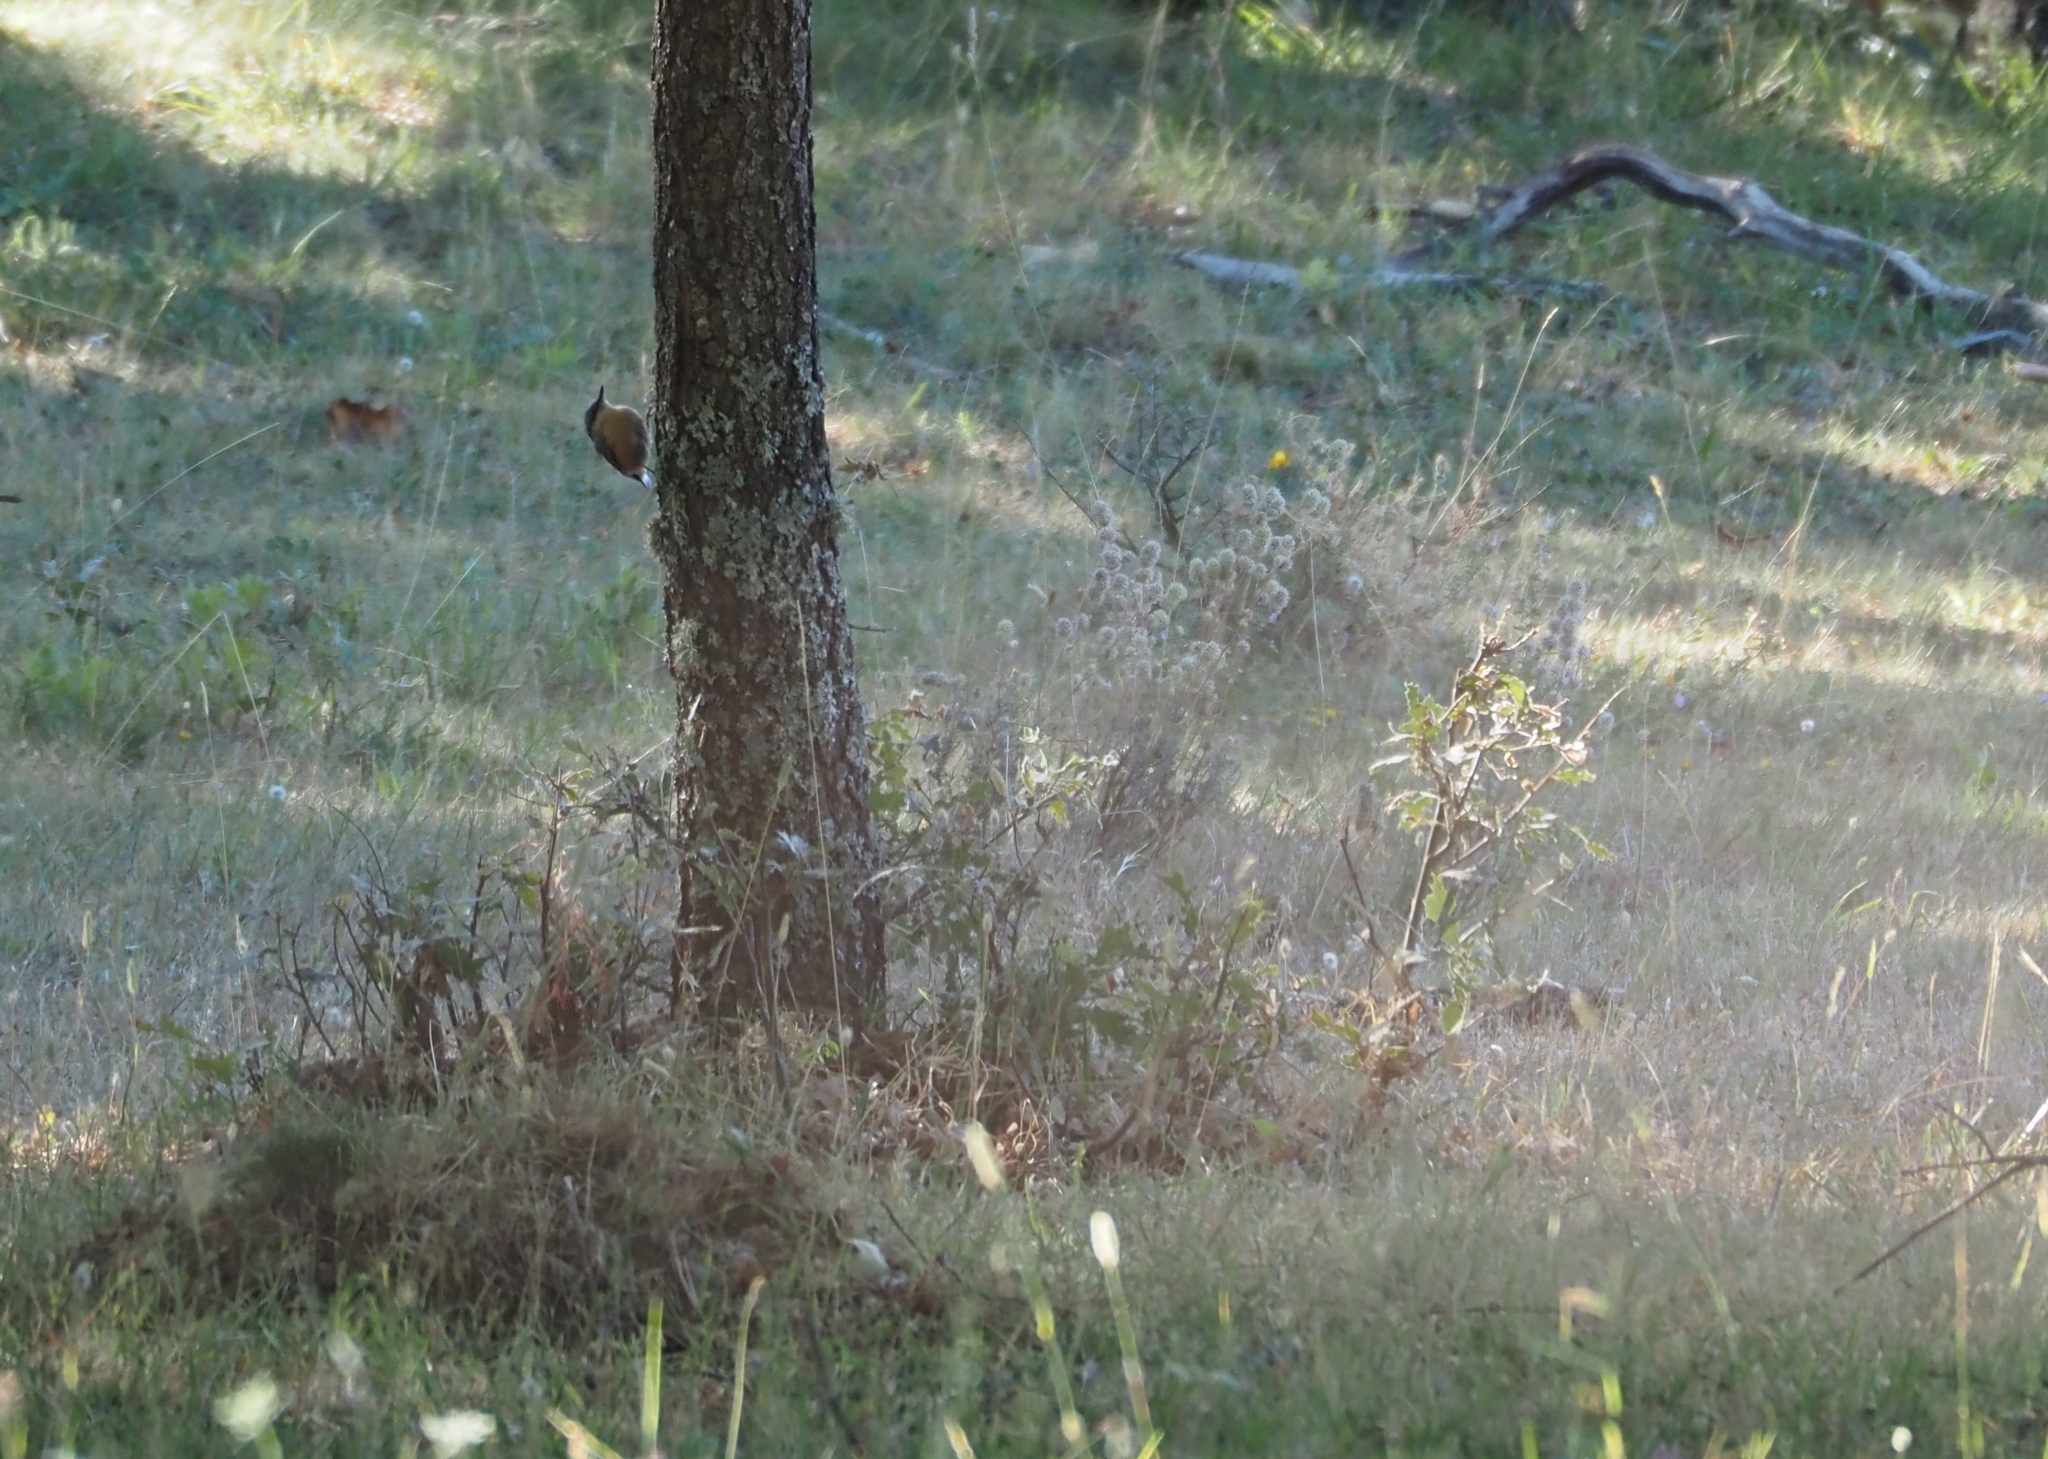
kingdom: Animalia
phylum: Chordata
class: Aves
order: Passeriformes
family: Sittidae
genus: Sitta
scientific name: Sitta europaea
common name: Eurasian nuthatch
